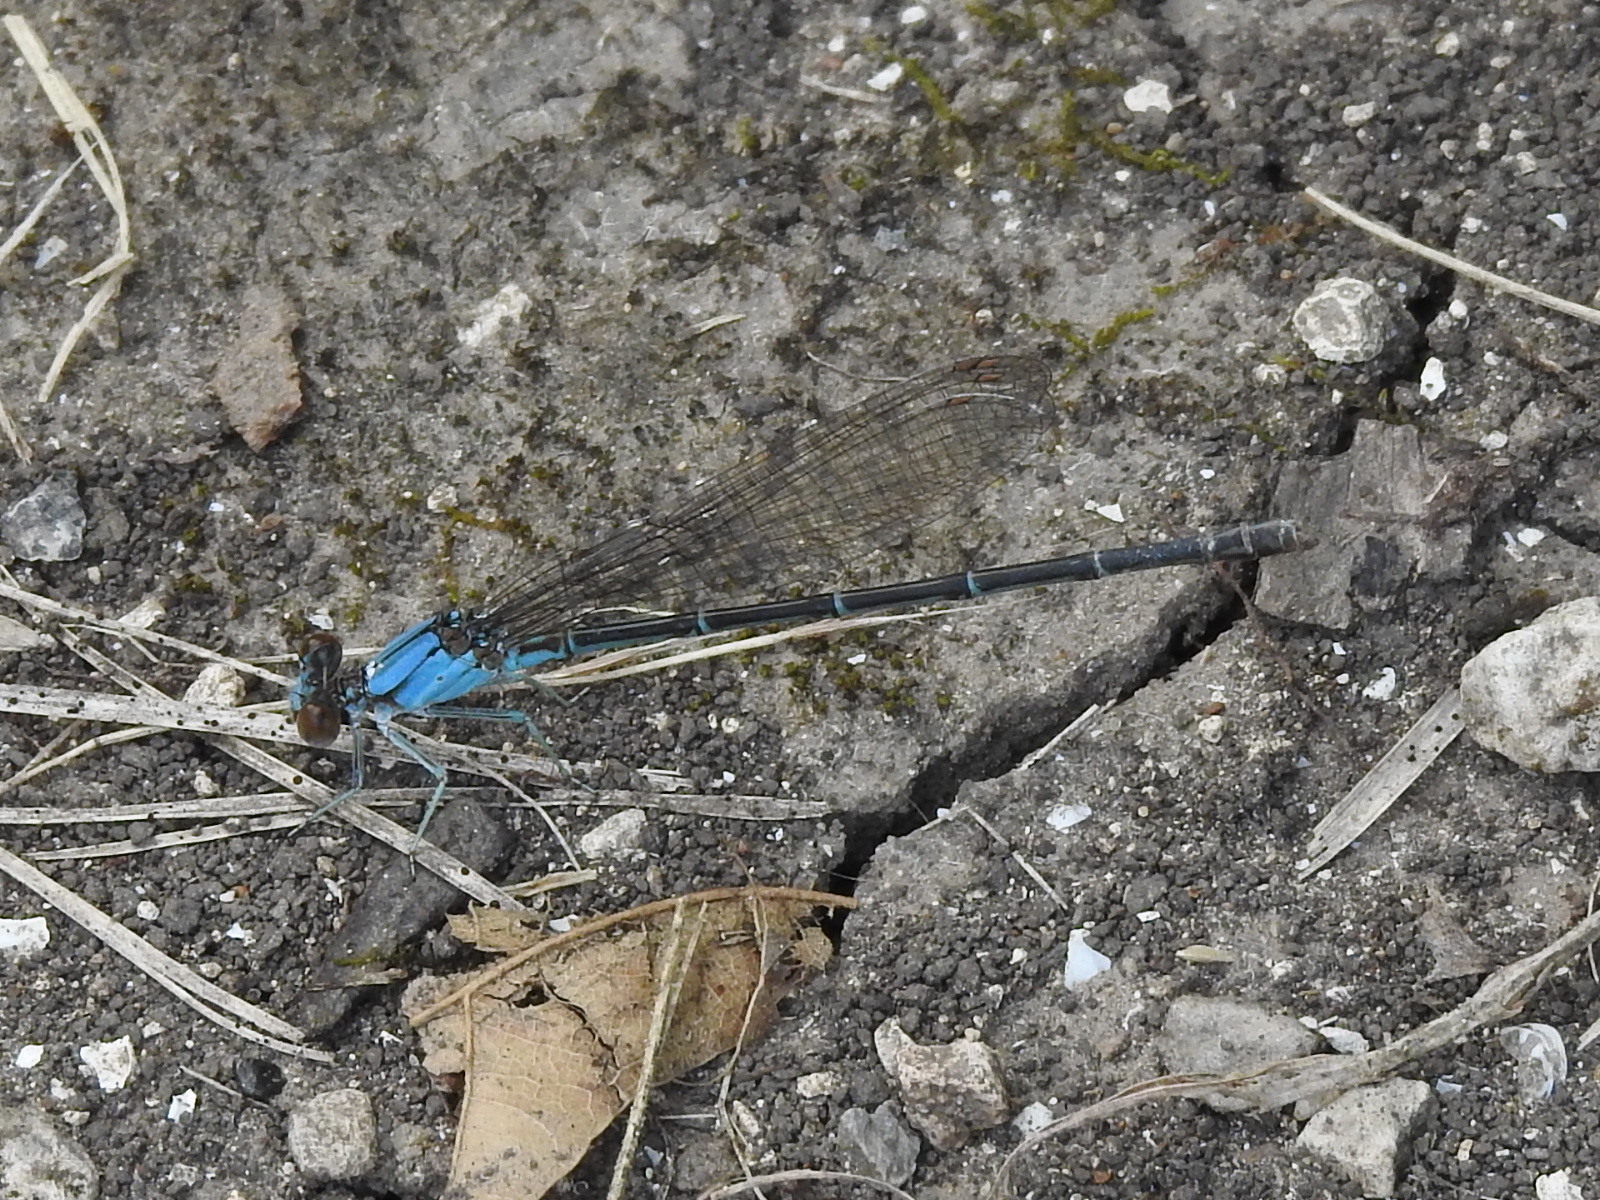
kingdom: Animalia
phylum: Arthropoda
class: Insecta
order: Odonata
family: Coenagrionidae
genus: Argia
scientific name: Argia apicalis
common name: Blue-fronted dancer
